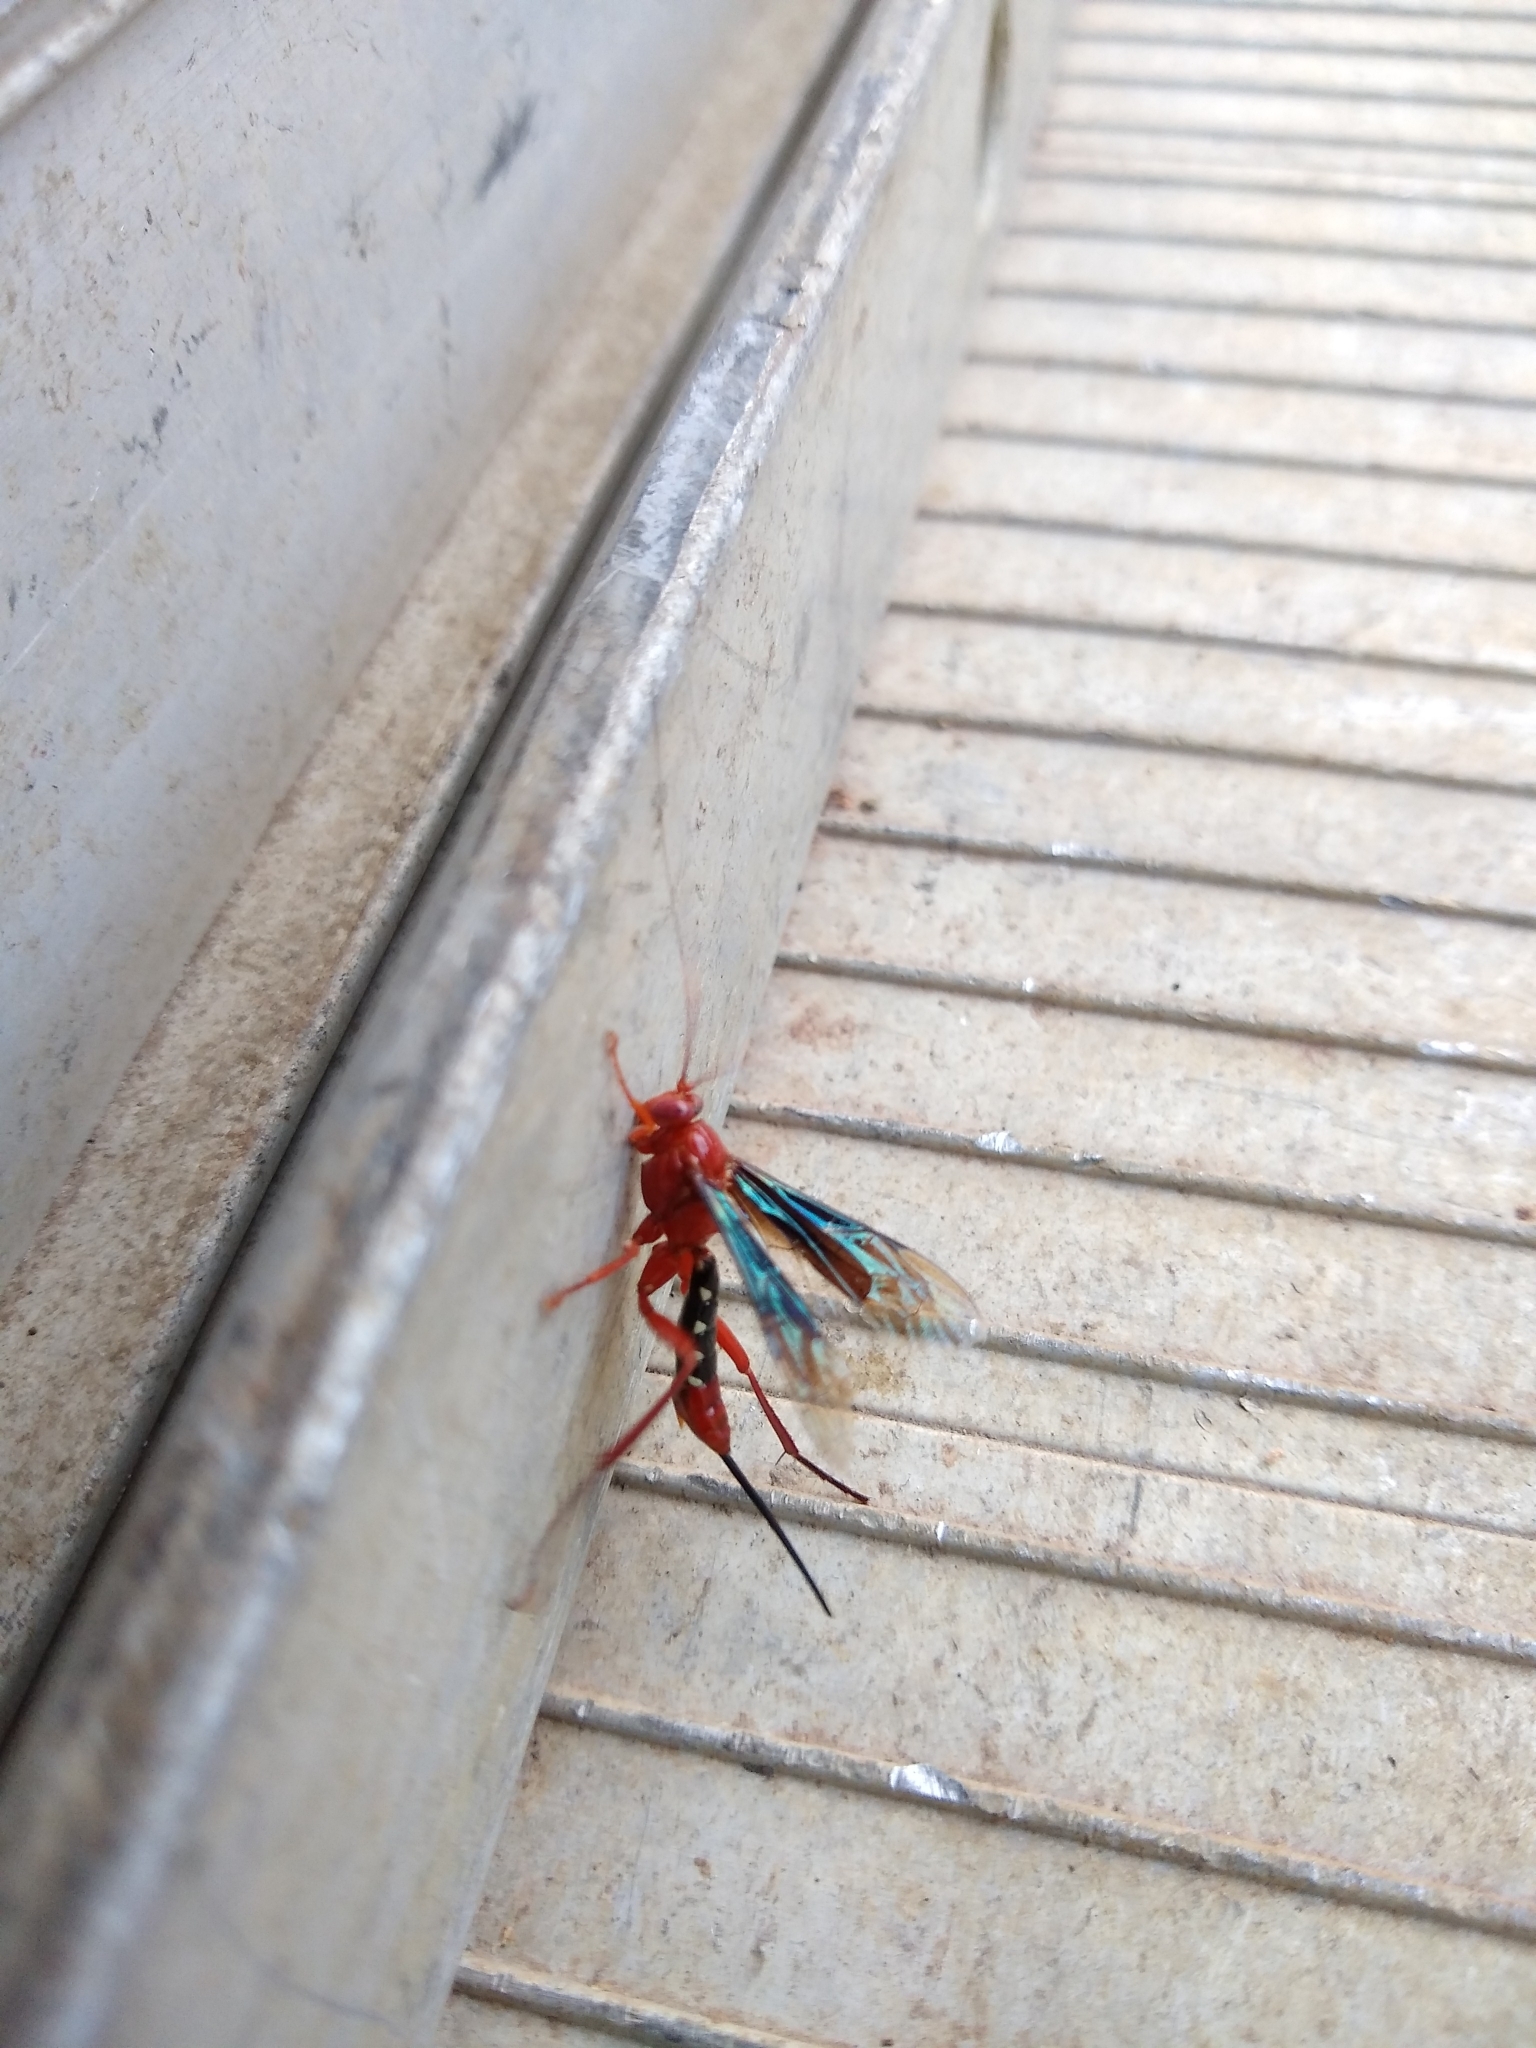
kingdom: Animalia
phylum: Arthropoda
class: Insecta
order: Hymenoptera
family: Ichneumonidae
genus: Lissopimpla
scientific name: Lissopimpla excelsa
